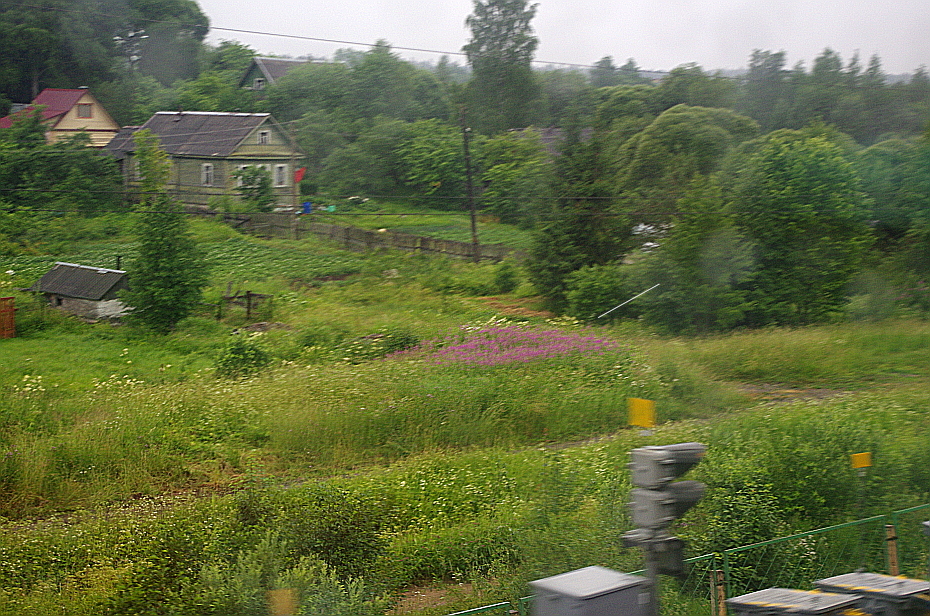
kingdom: Plantae
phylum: Tracheophyta
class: Magnoliopsida
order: Myrtales
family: Onagraceae
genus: Chamaenerion
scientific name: Chamaenerion angustifolium
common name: Fireweed
